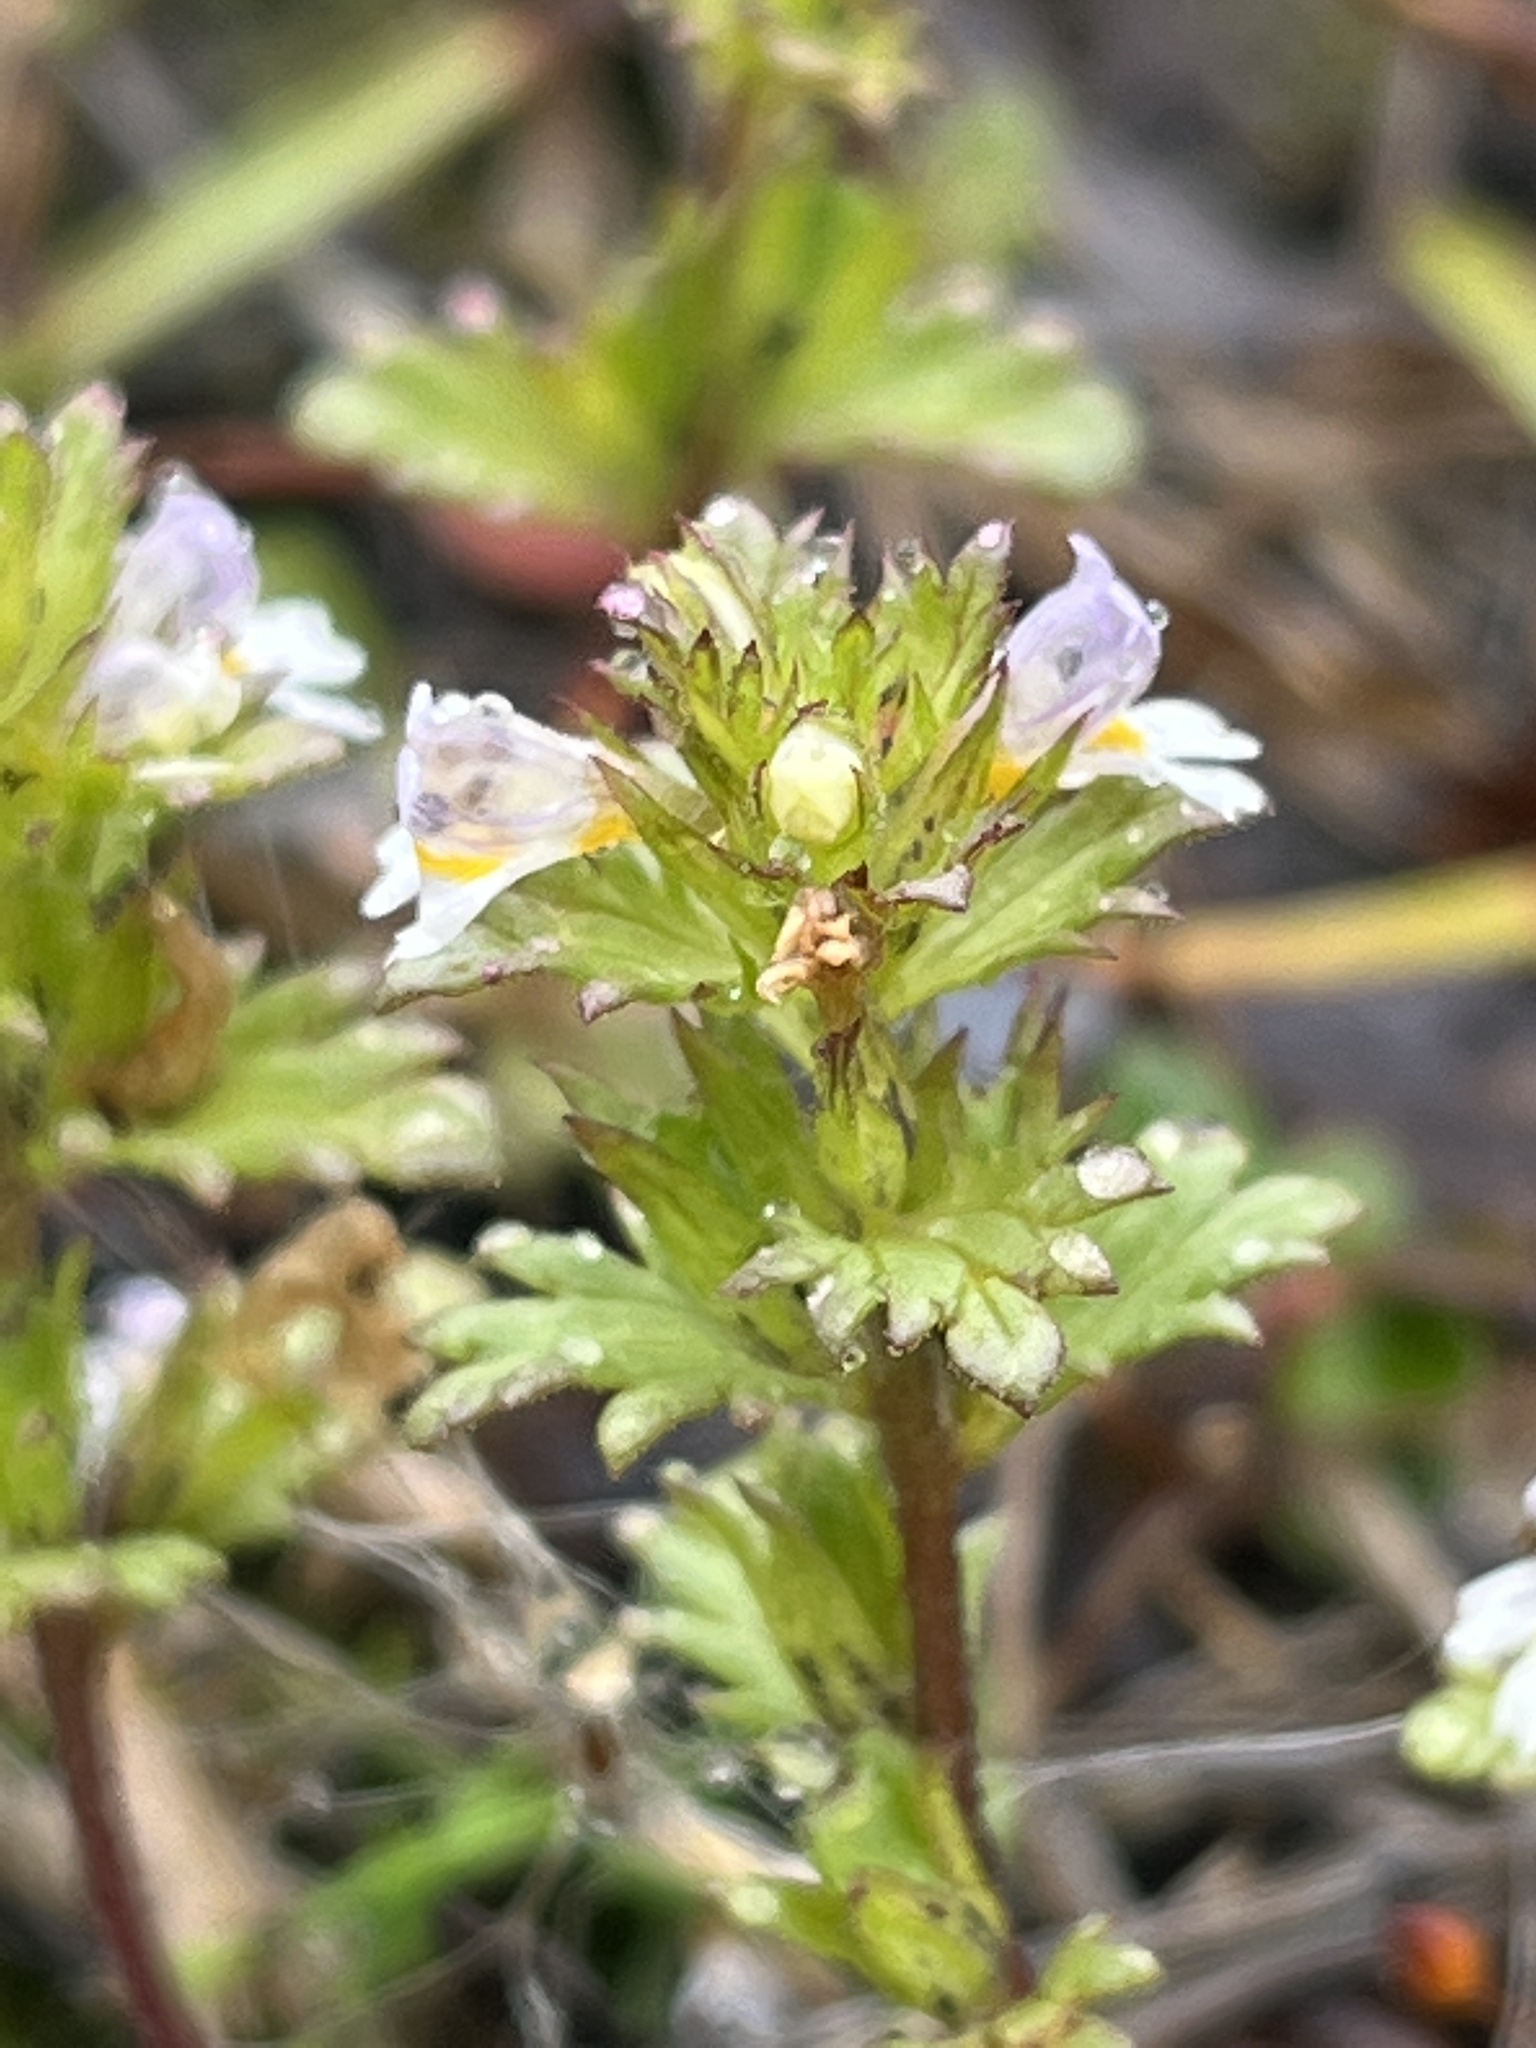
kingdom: Plantae
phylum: Tracheophyta
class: Magnoliopsida
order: Lamiales
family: Orobanchaceae
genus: Euphrasia
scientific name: Euphrasia frigida
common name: An eyebright
